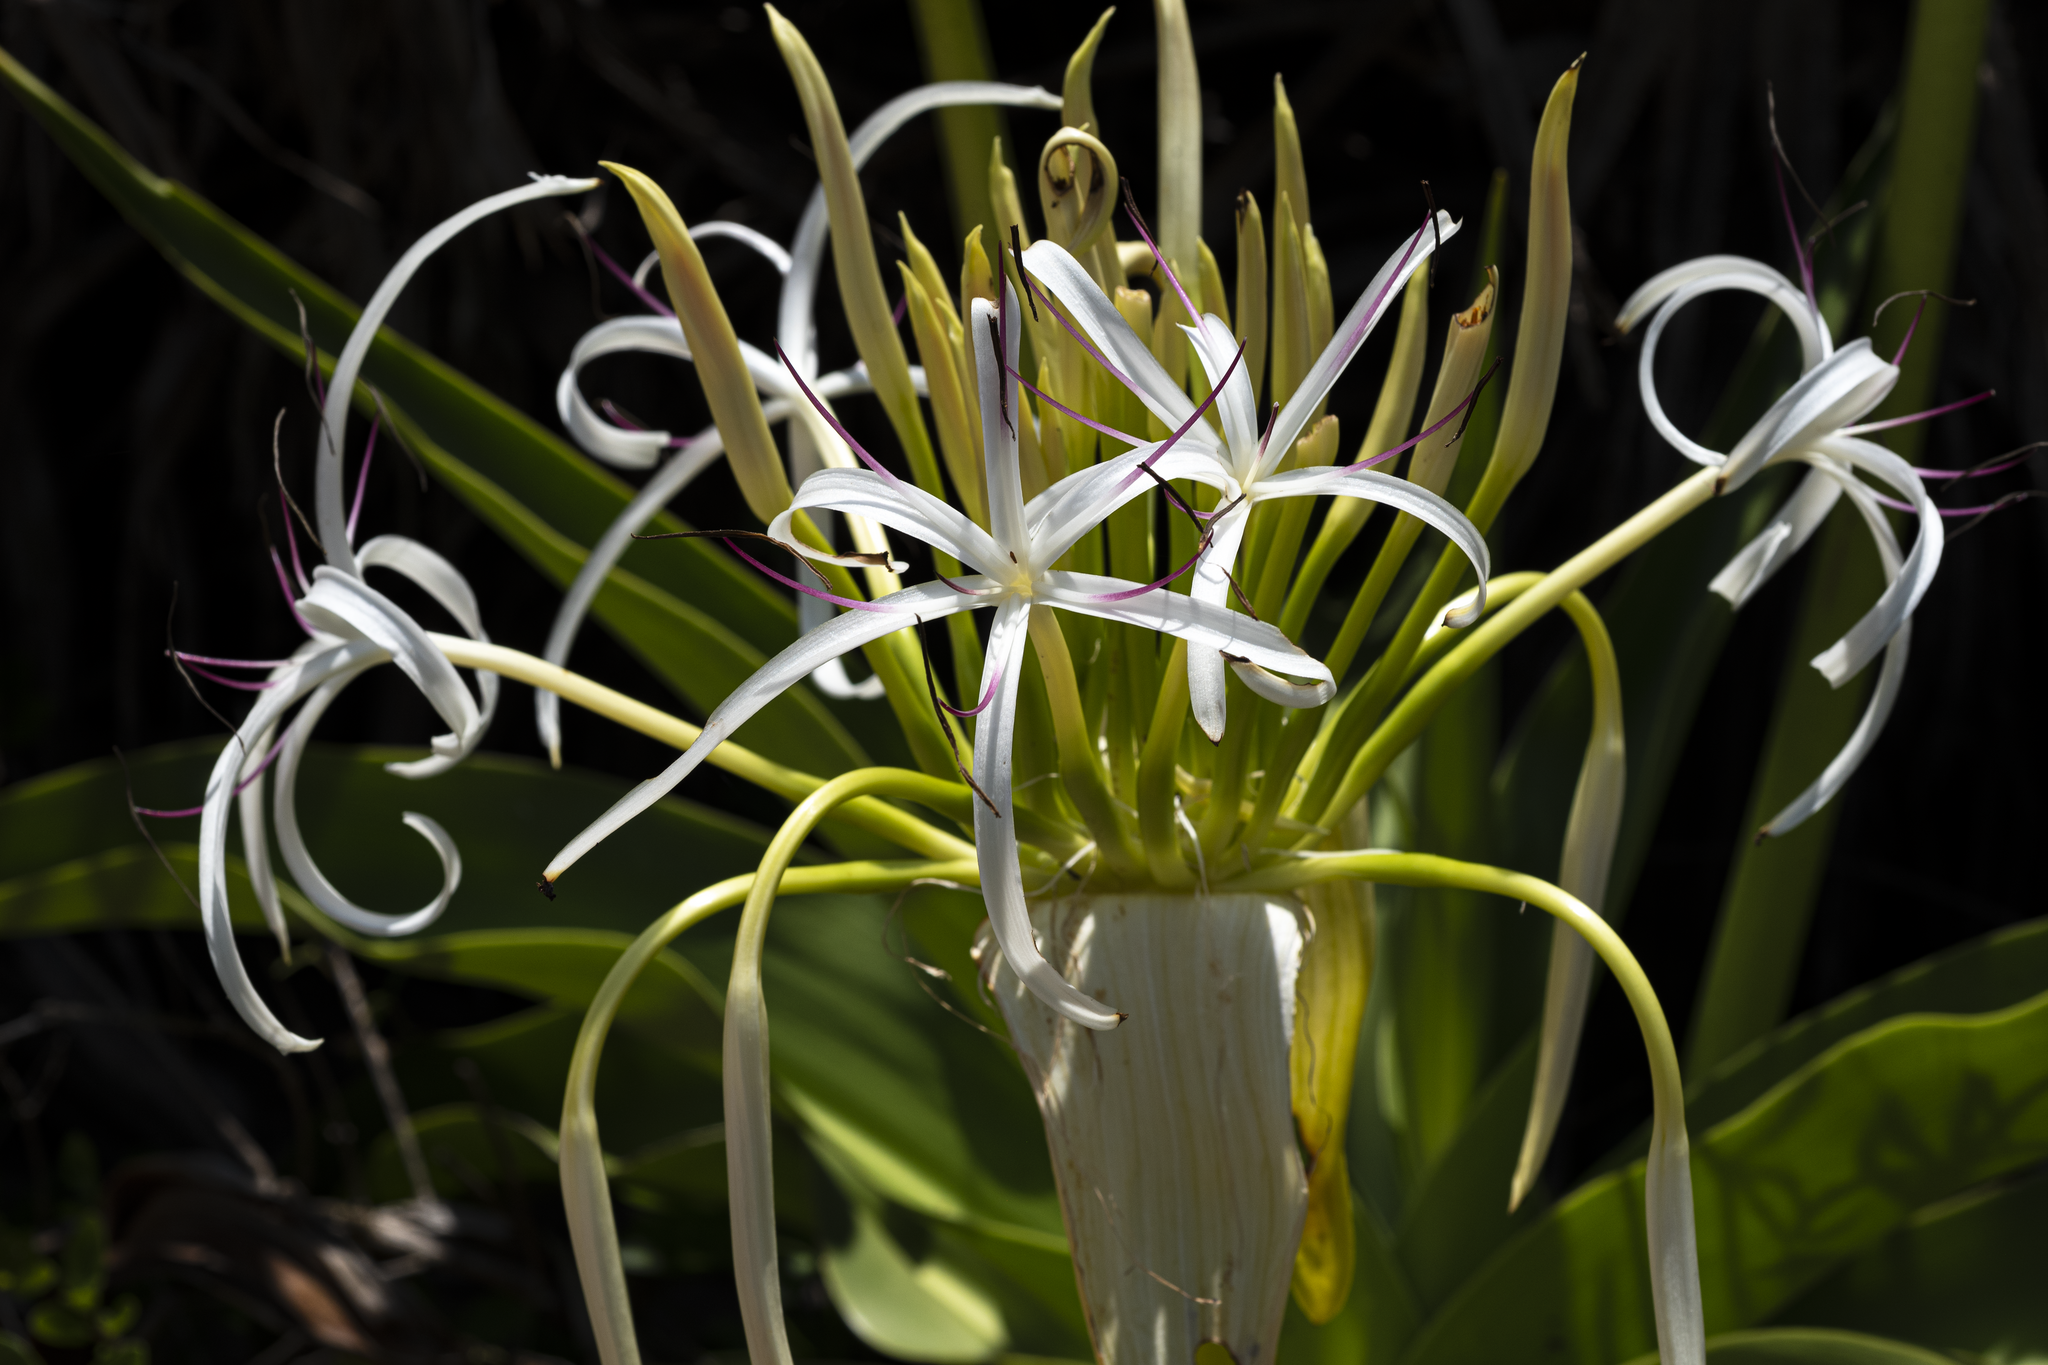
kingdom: Plantae
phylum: Tracheophyta
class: Liliopsida
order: Asparagales
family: Amaryllidaceae
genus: Crinum
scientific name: Crinum asiaticum
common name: Poisonbulb
